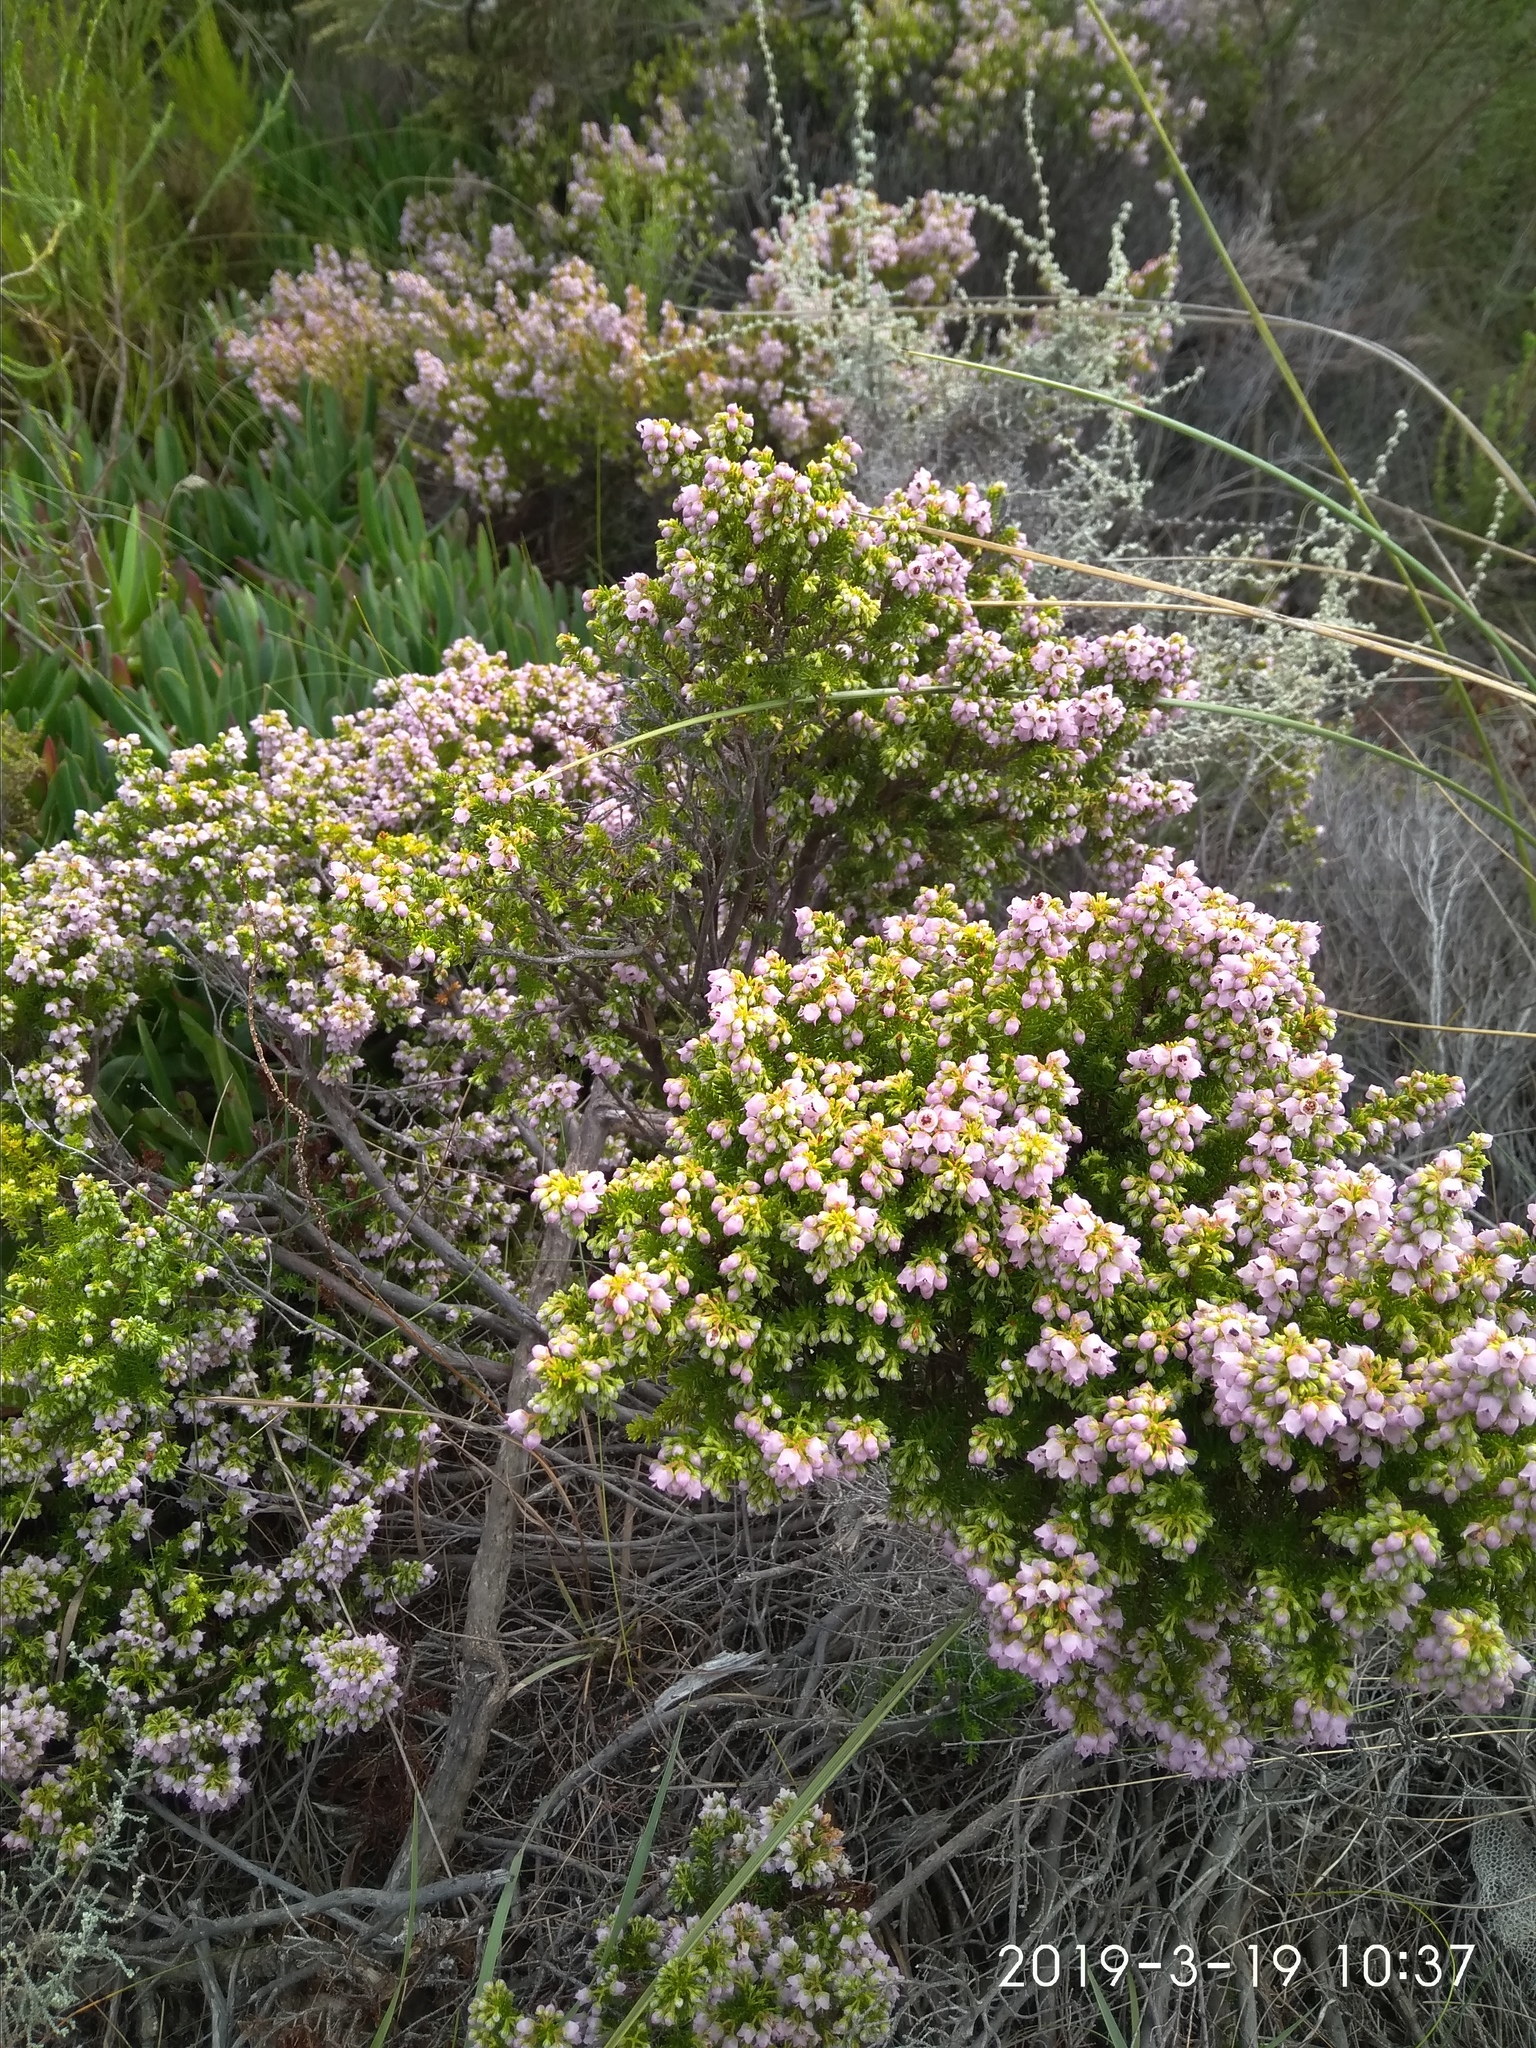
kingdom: Plantae
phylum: Tracheophyta
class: Magnoliopsida
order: Ericales
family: Ericaceae
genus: Erica
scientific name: Erica curvirostris
